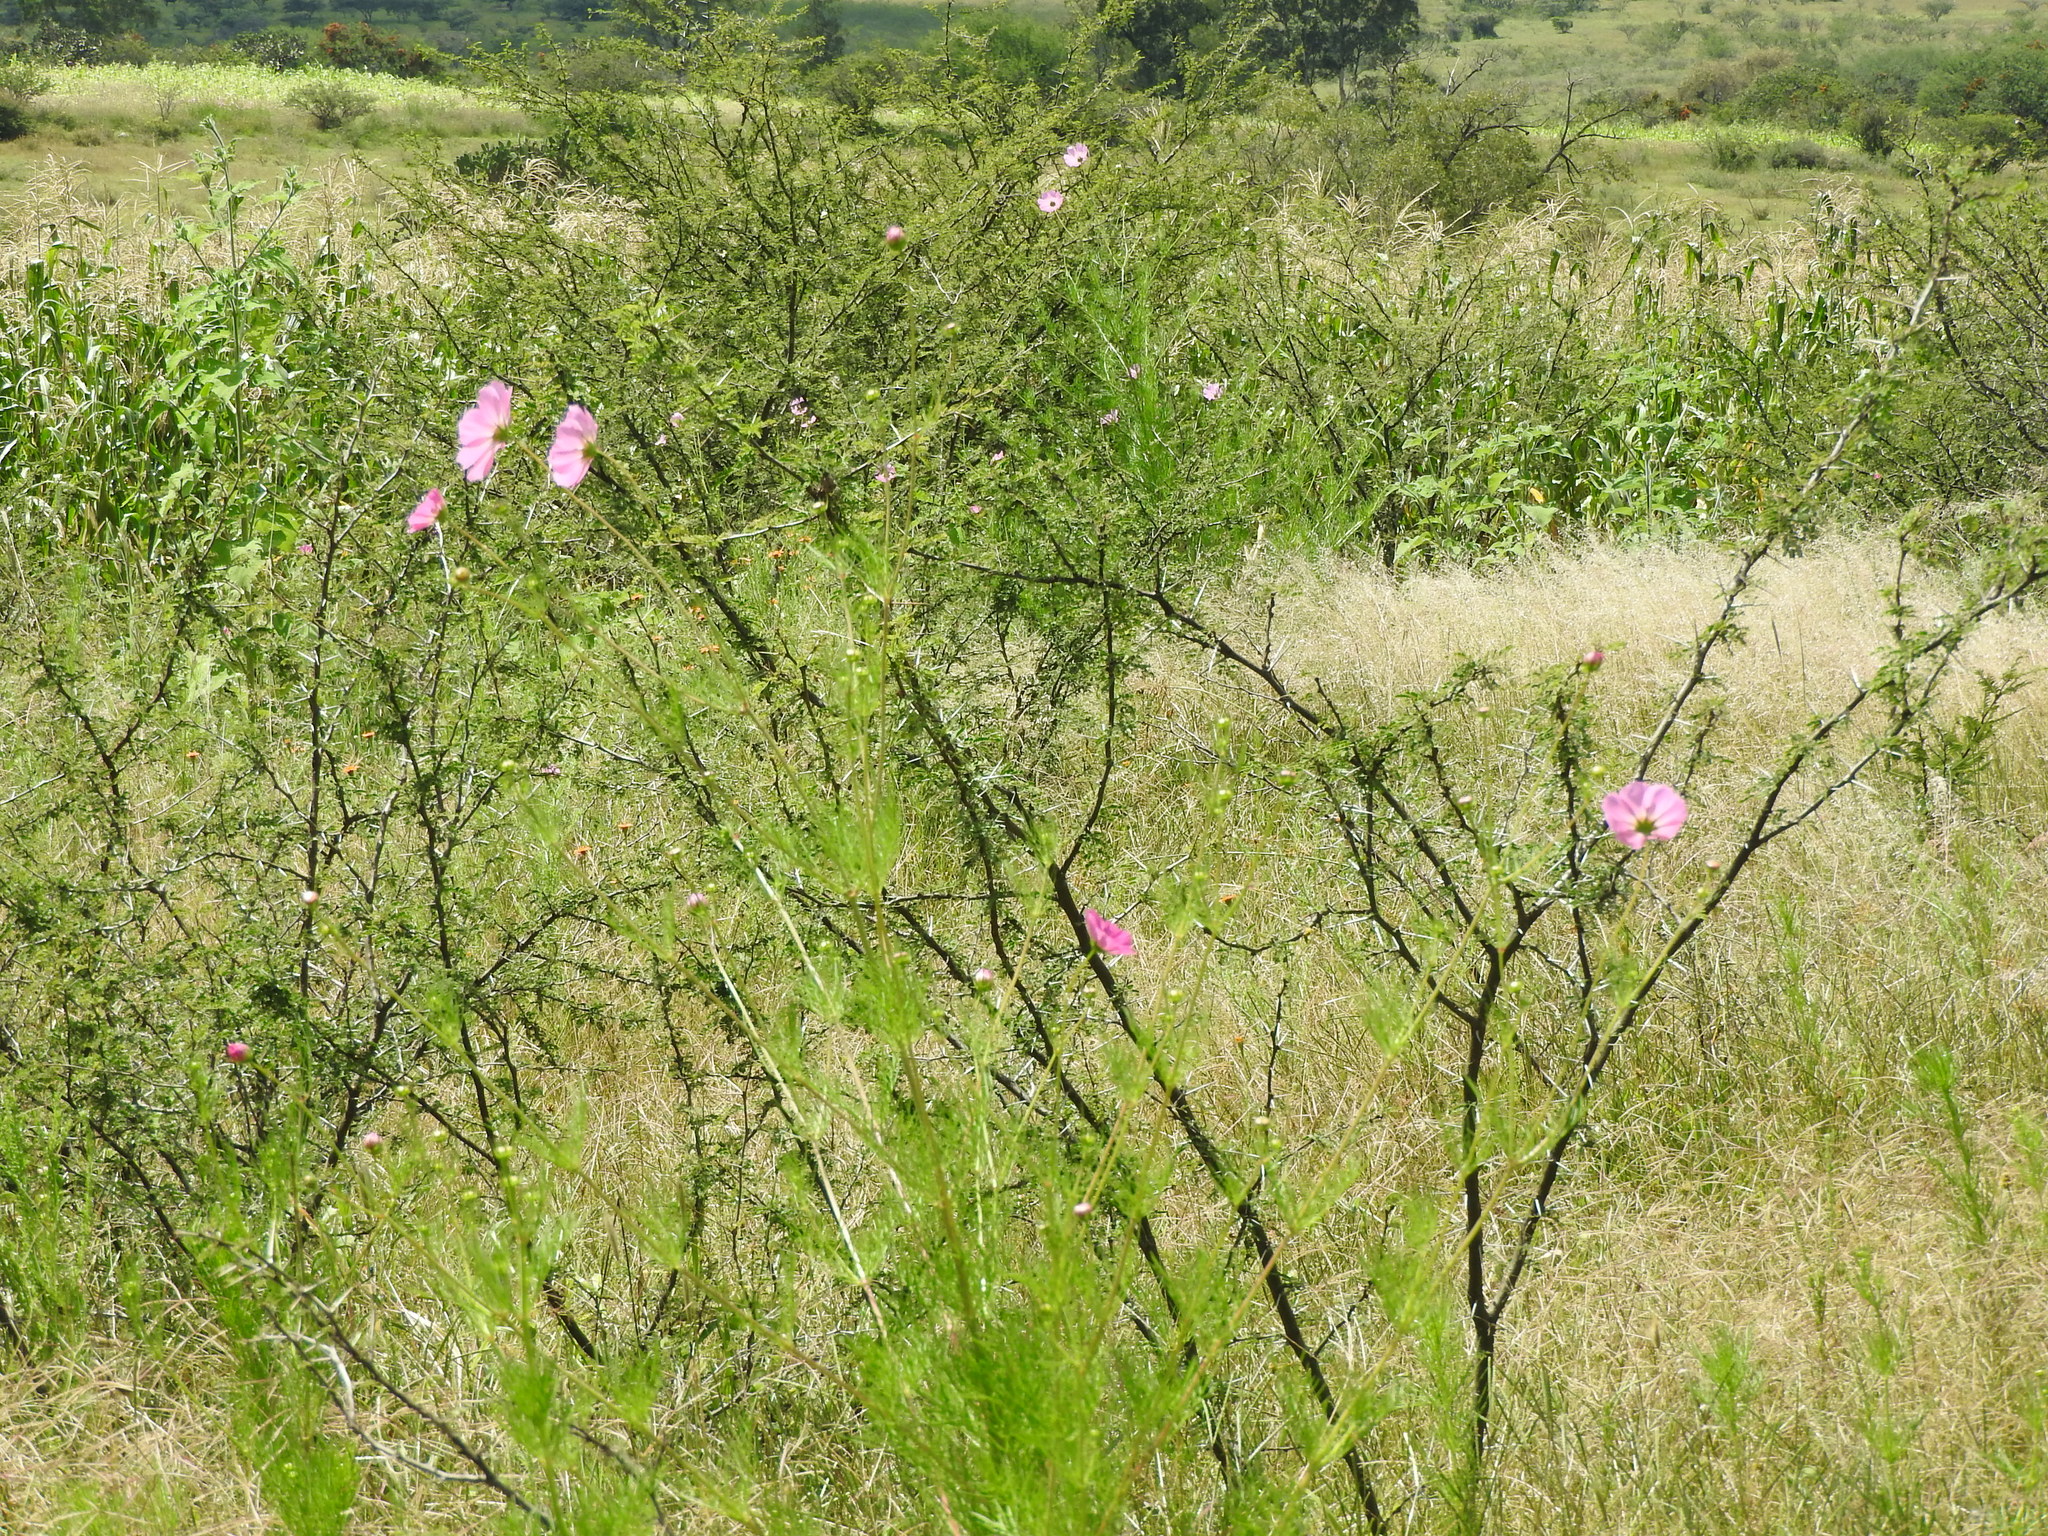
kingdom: Plantae
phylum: Tracheophyta
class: Magnoliopsida
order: Asterales
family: Asteraceae
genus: Cosmos
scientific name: Cosmos bipinnatus
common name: Garden cosmos
